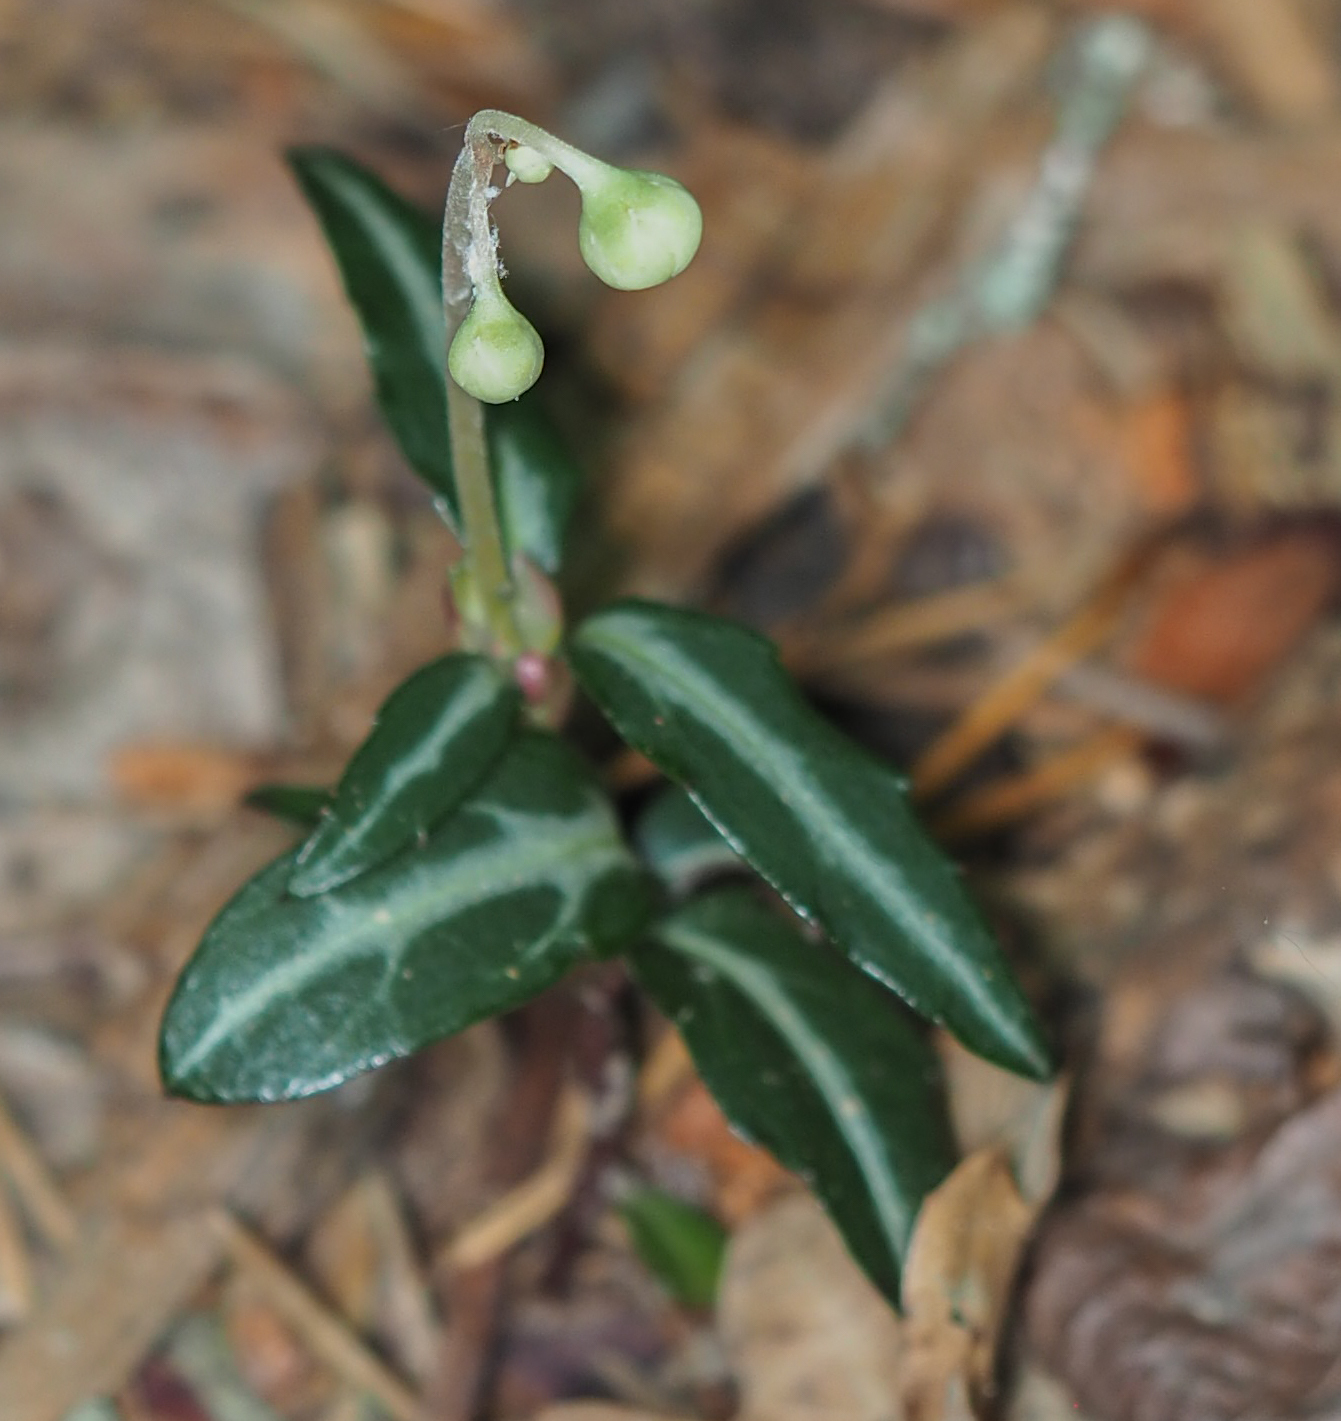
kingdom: Plantae
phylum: Tracheophyta
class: Magnoliopsida
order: Ericales
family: Ericaceae
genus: Chimaphila
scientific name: Chimaphila maculata
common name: Spotted pipsissewa
